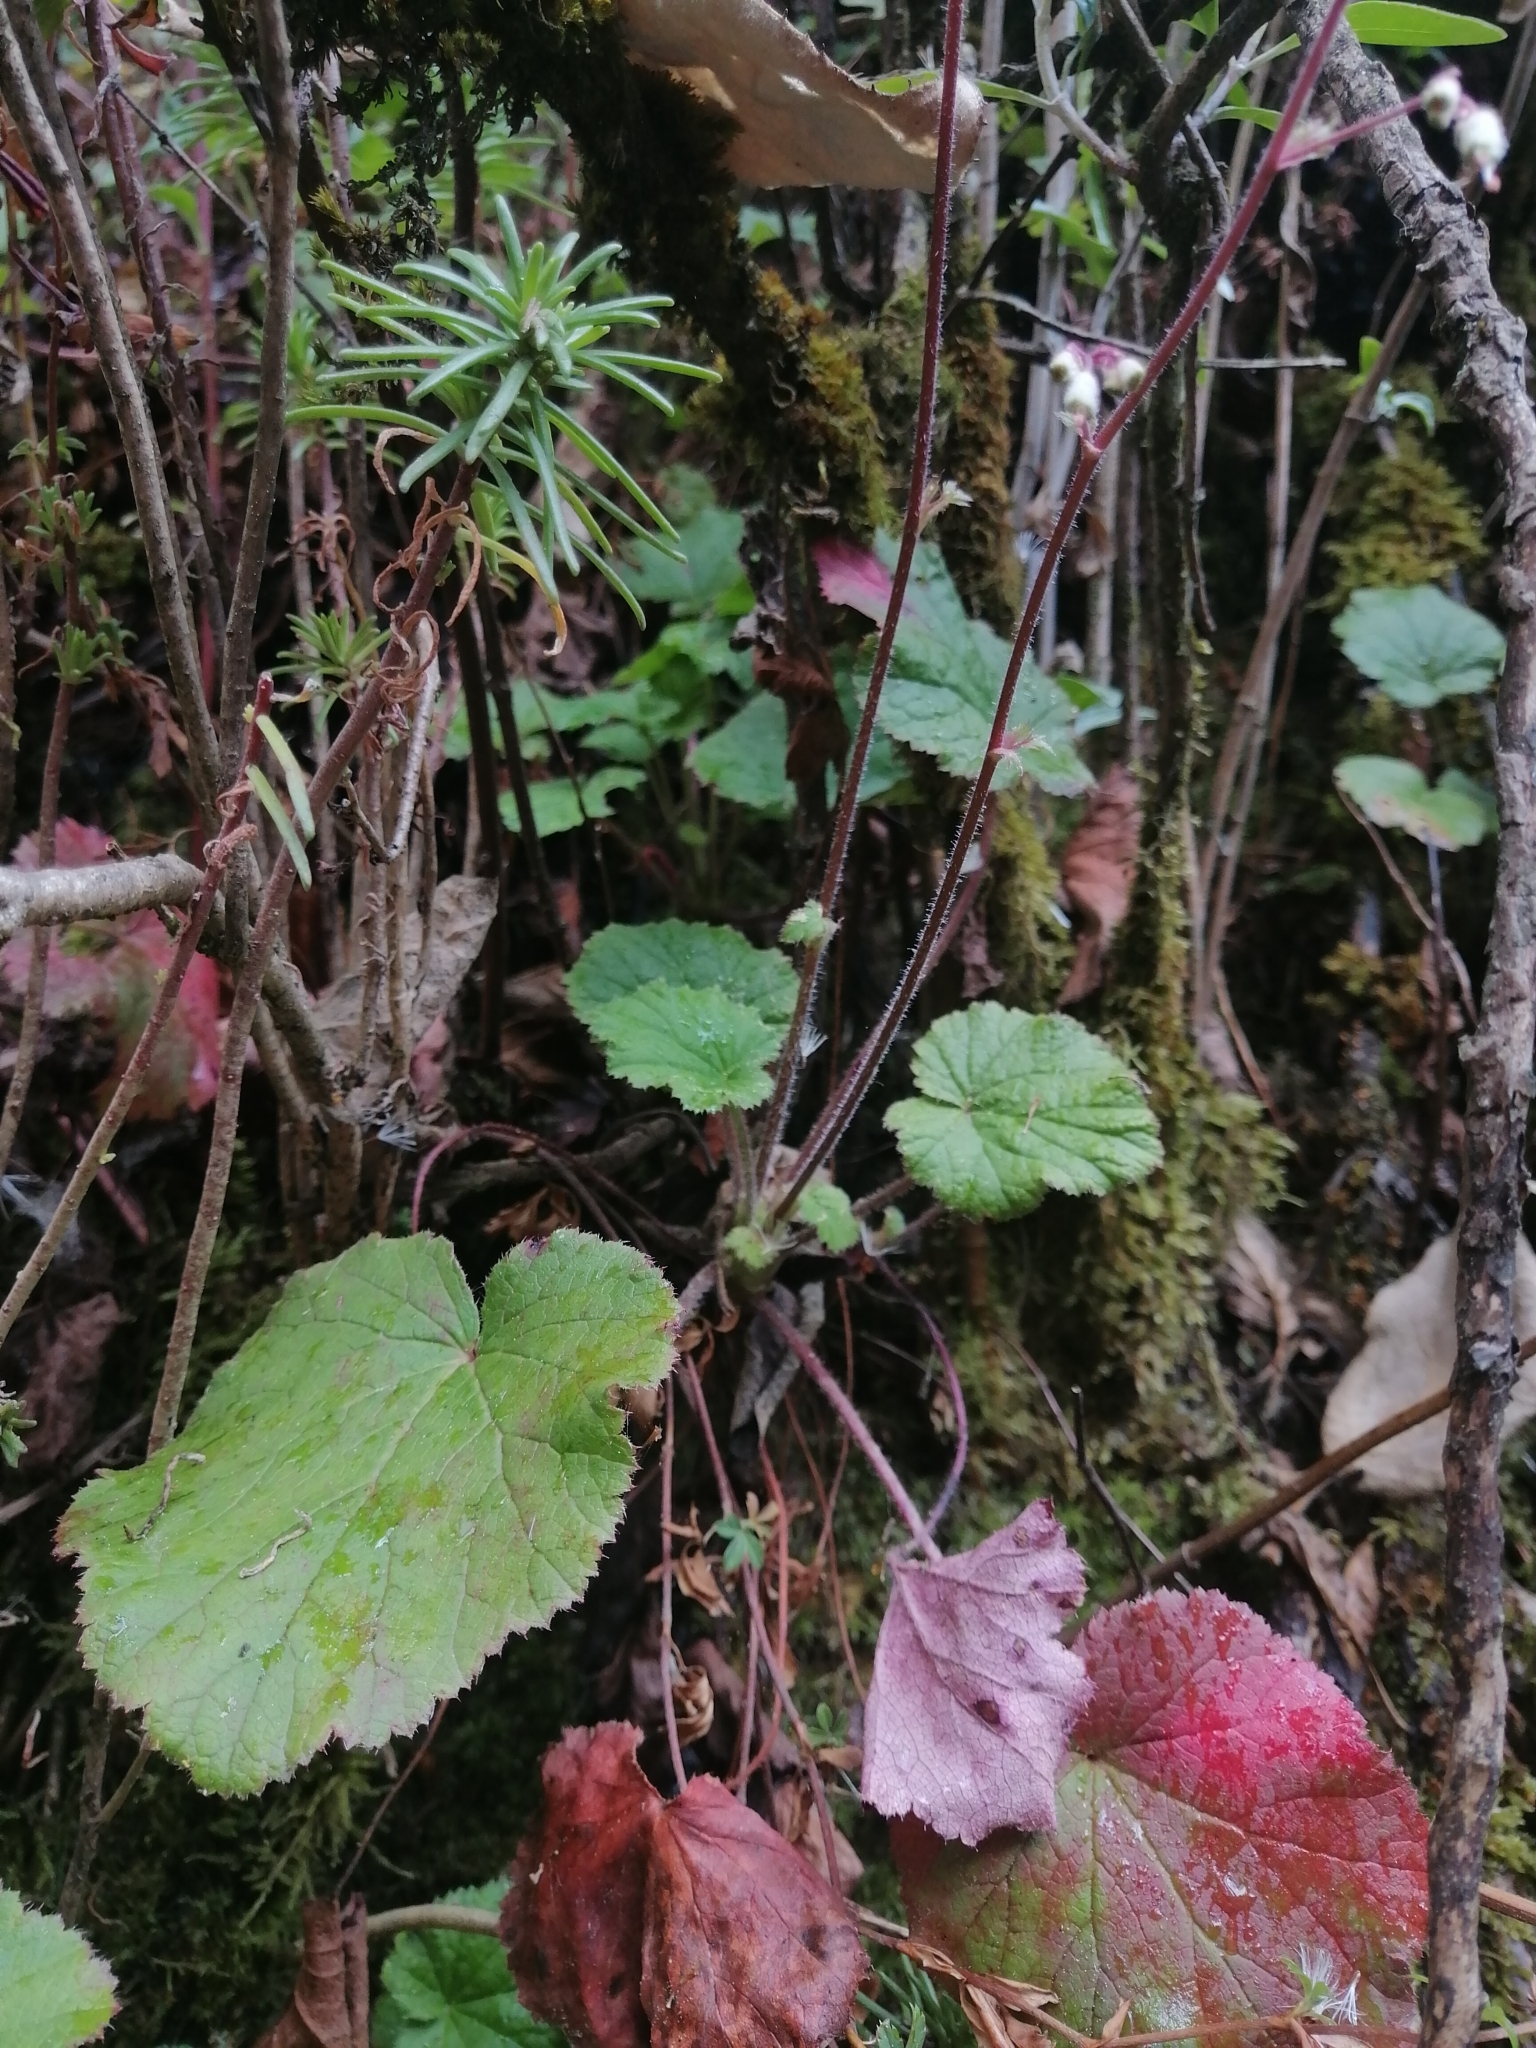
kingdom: Plantae
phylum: Tracheophyta
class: Magnoliopsida
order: Saxifragales
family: Saxifragaceae
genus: Heuchera
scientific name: Heuchera longipetala
